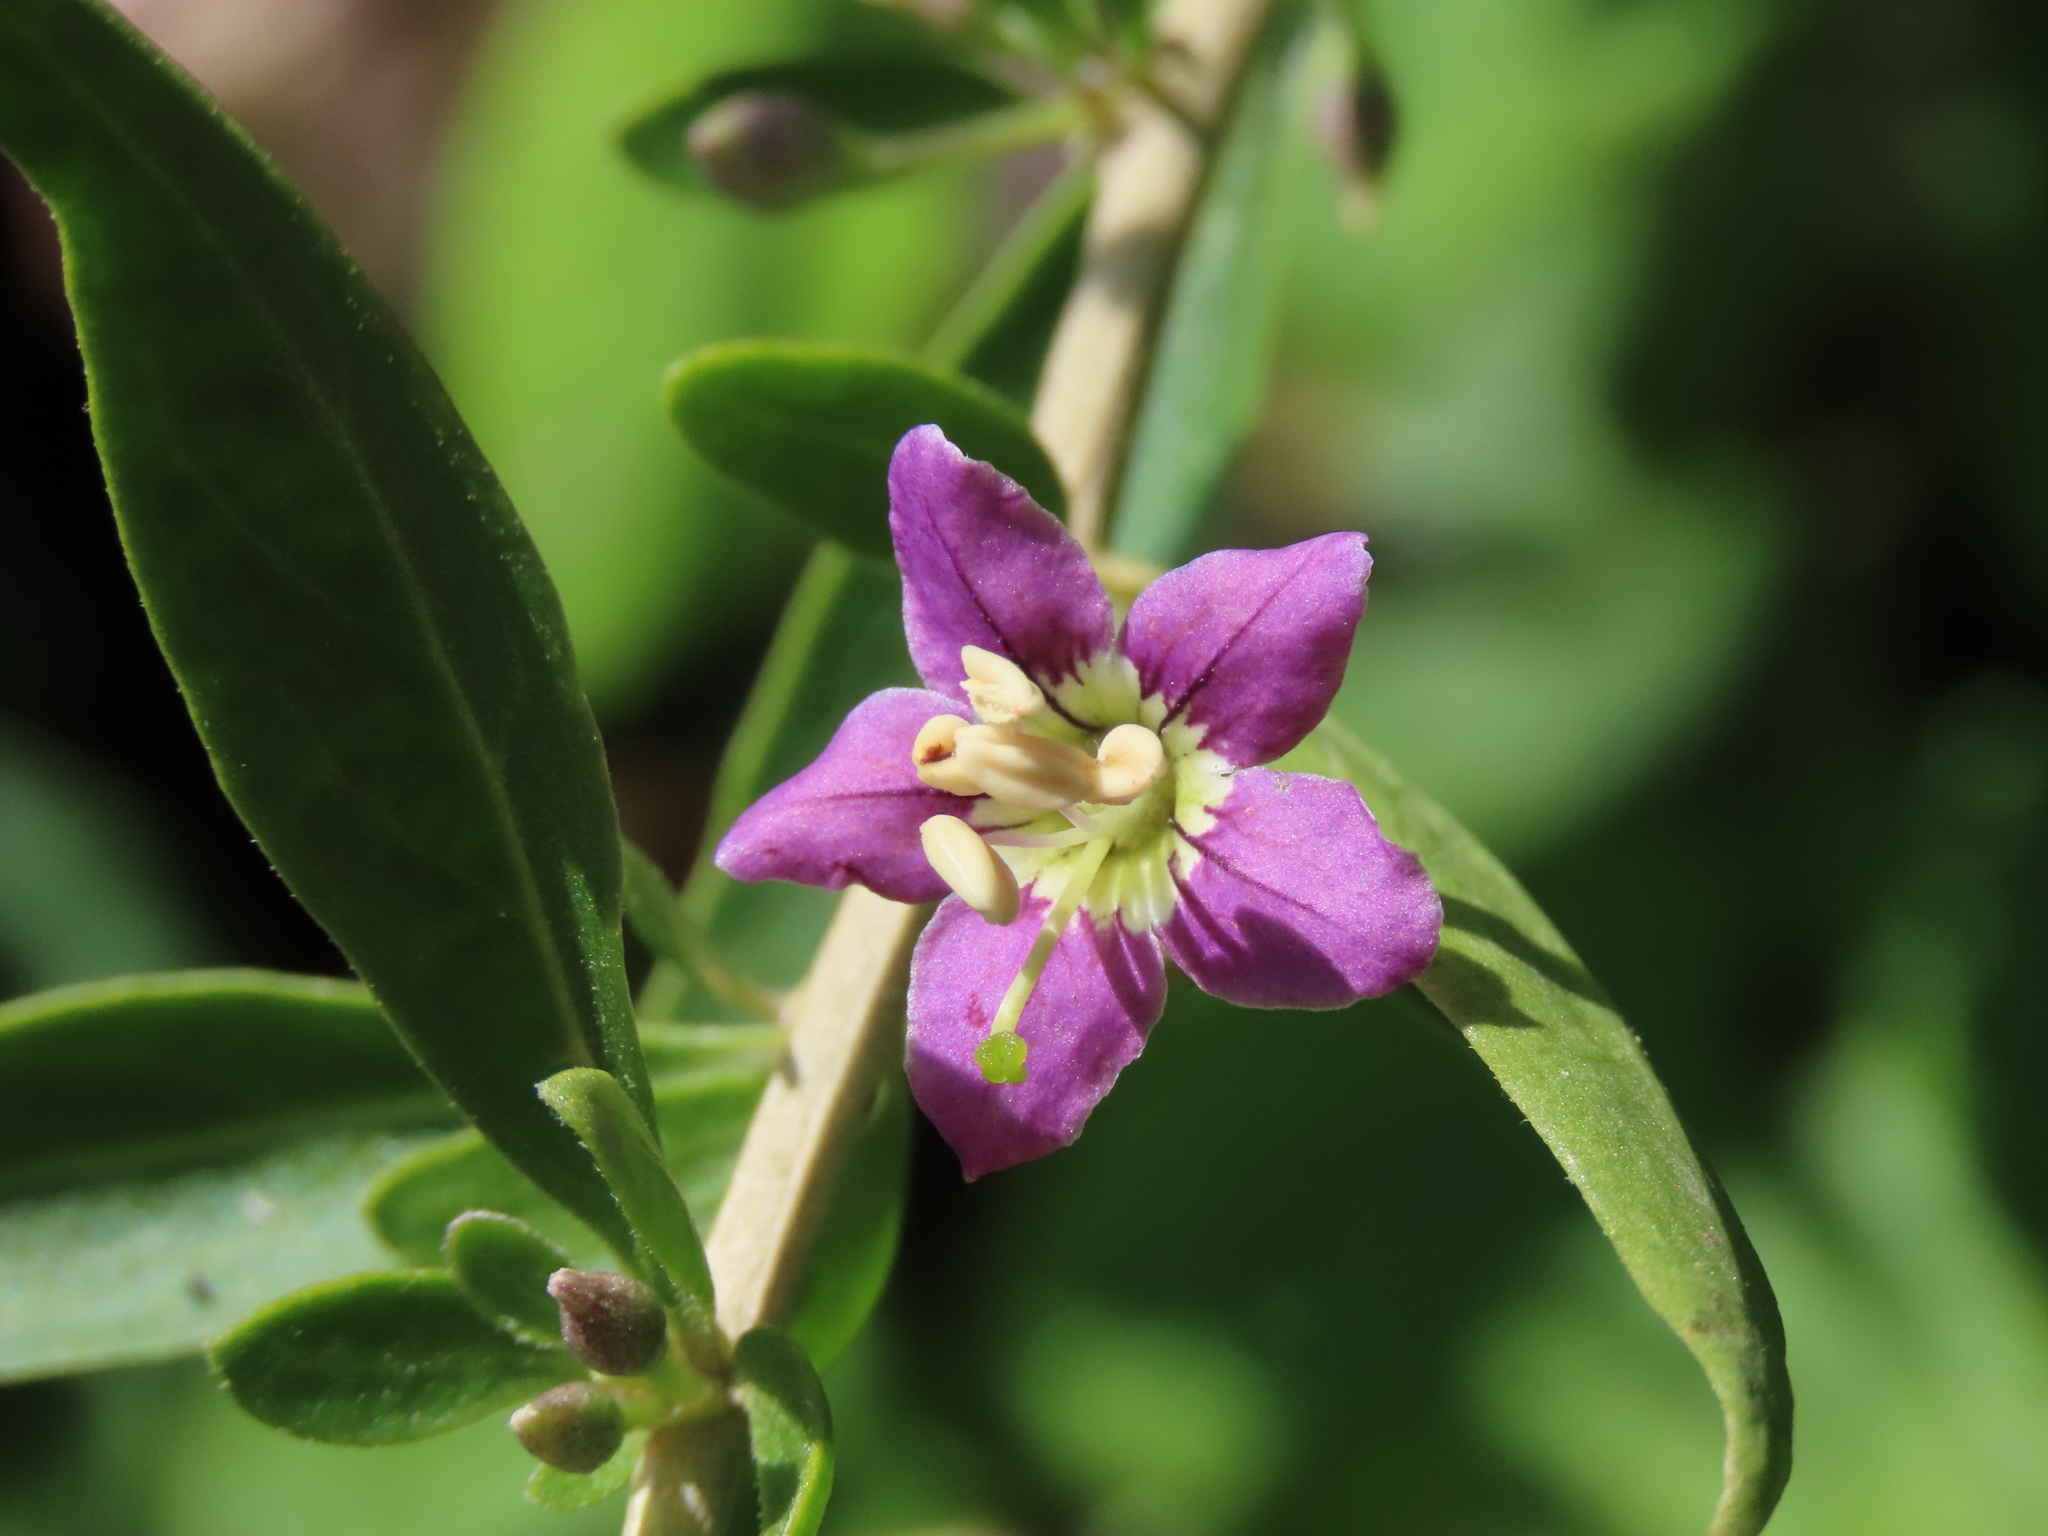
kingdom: Plantae
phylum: Tracheophyta
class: Magnoliopsida
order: Solanales
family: Solanaceae
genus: Lycium
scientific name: Lycium barbarum
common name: Duke of argyll's teaplant
